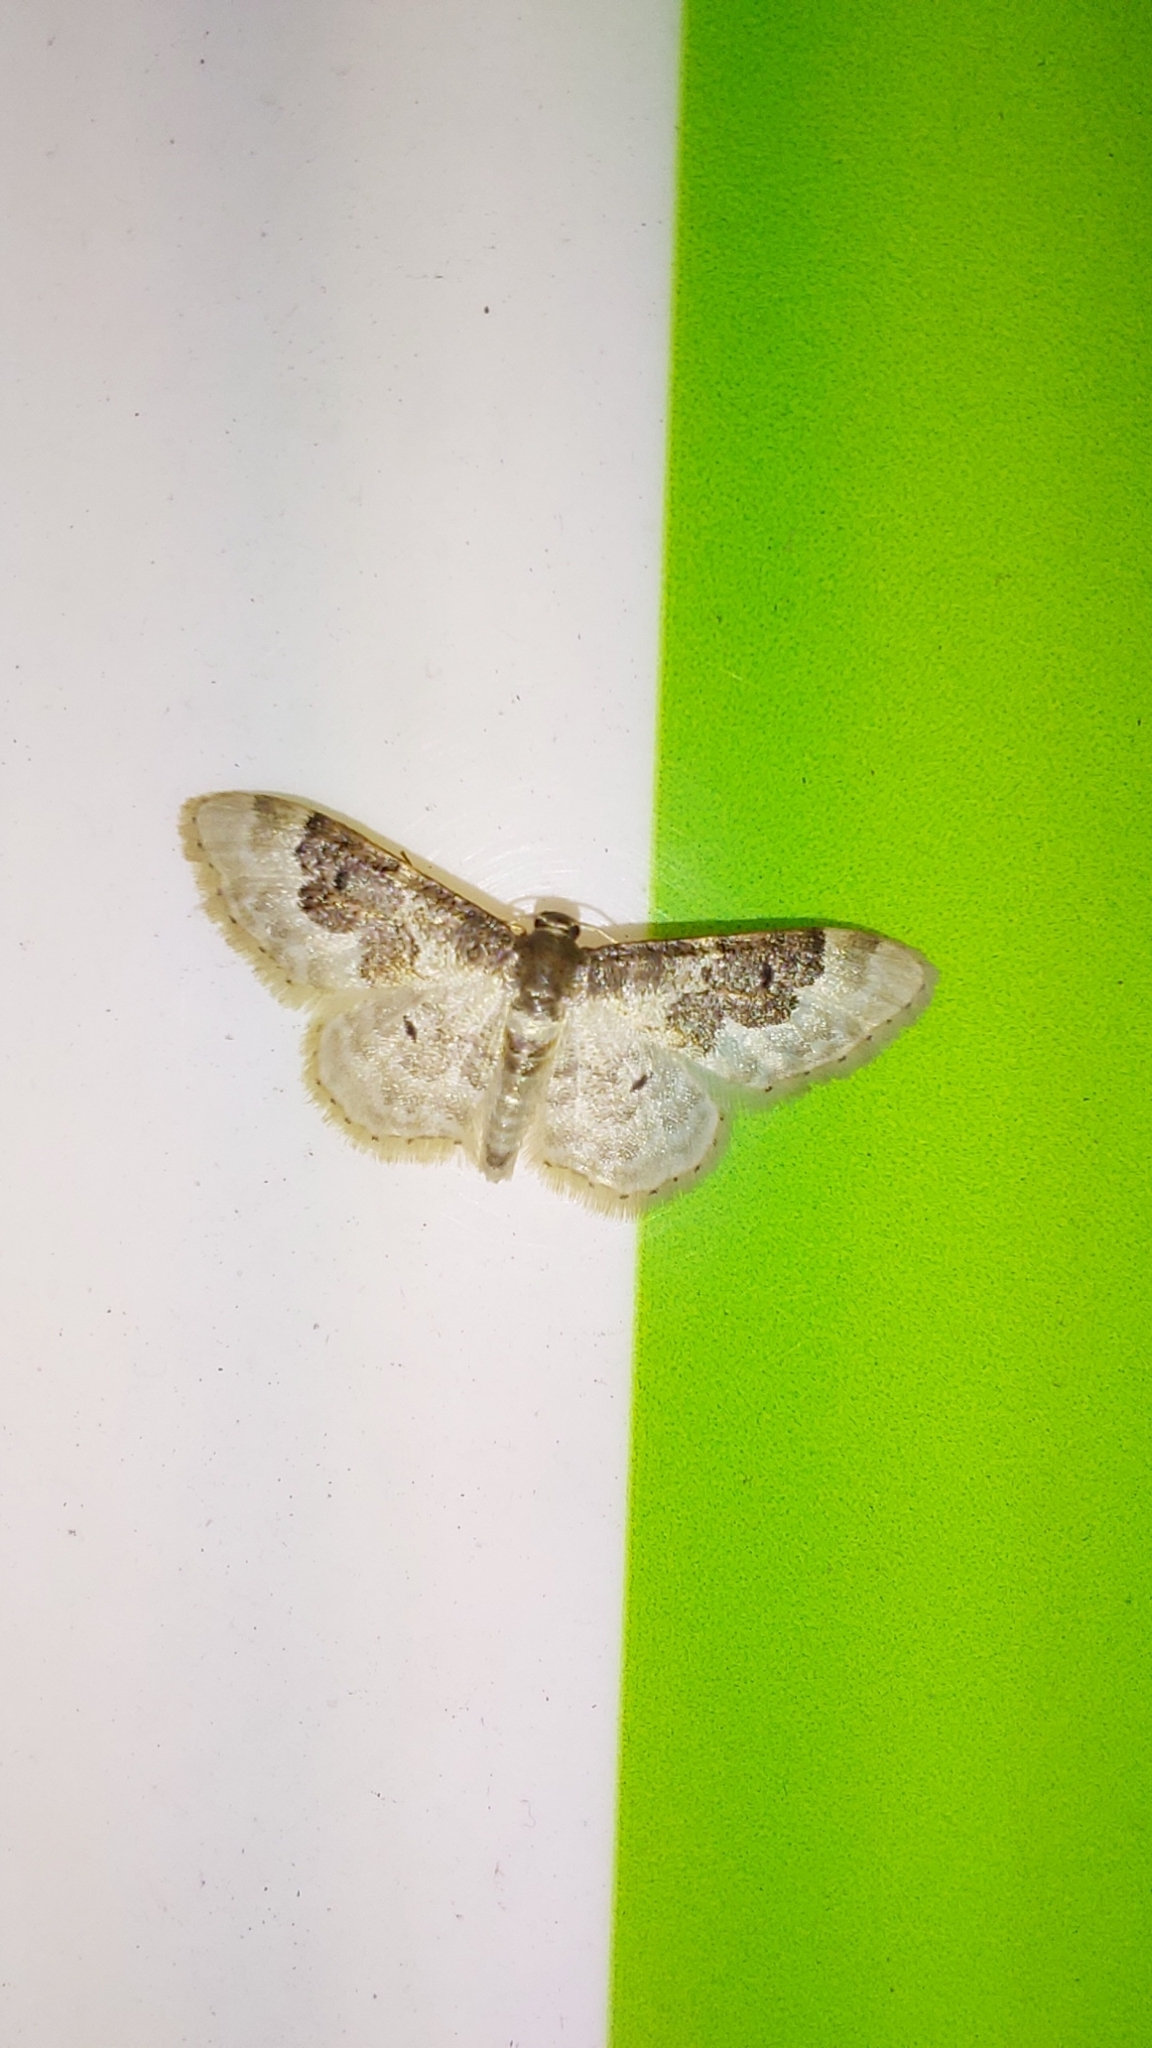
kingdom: Animalia
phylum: Arthropoda
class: Insecta
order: Lepidoptera
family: Geometridae
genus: Idaea
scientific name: Idaea rusticata
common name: Least carpet
